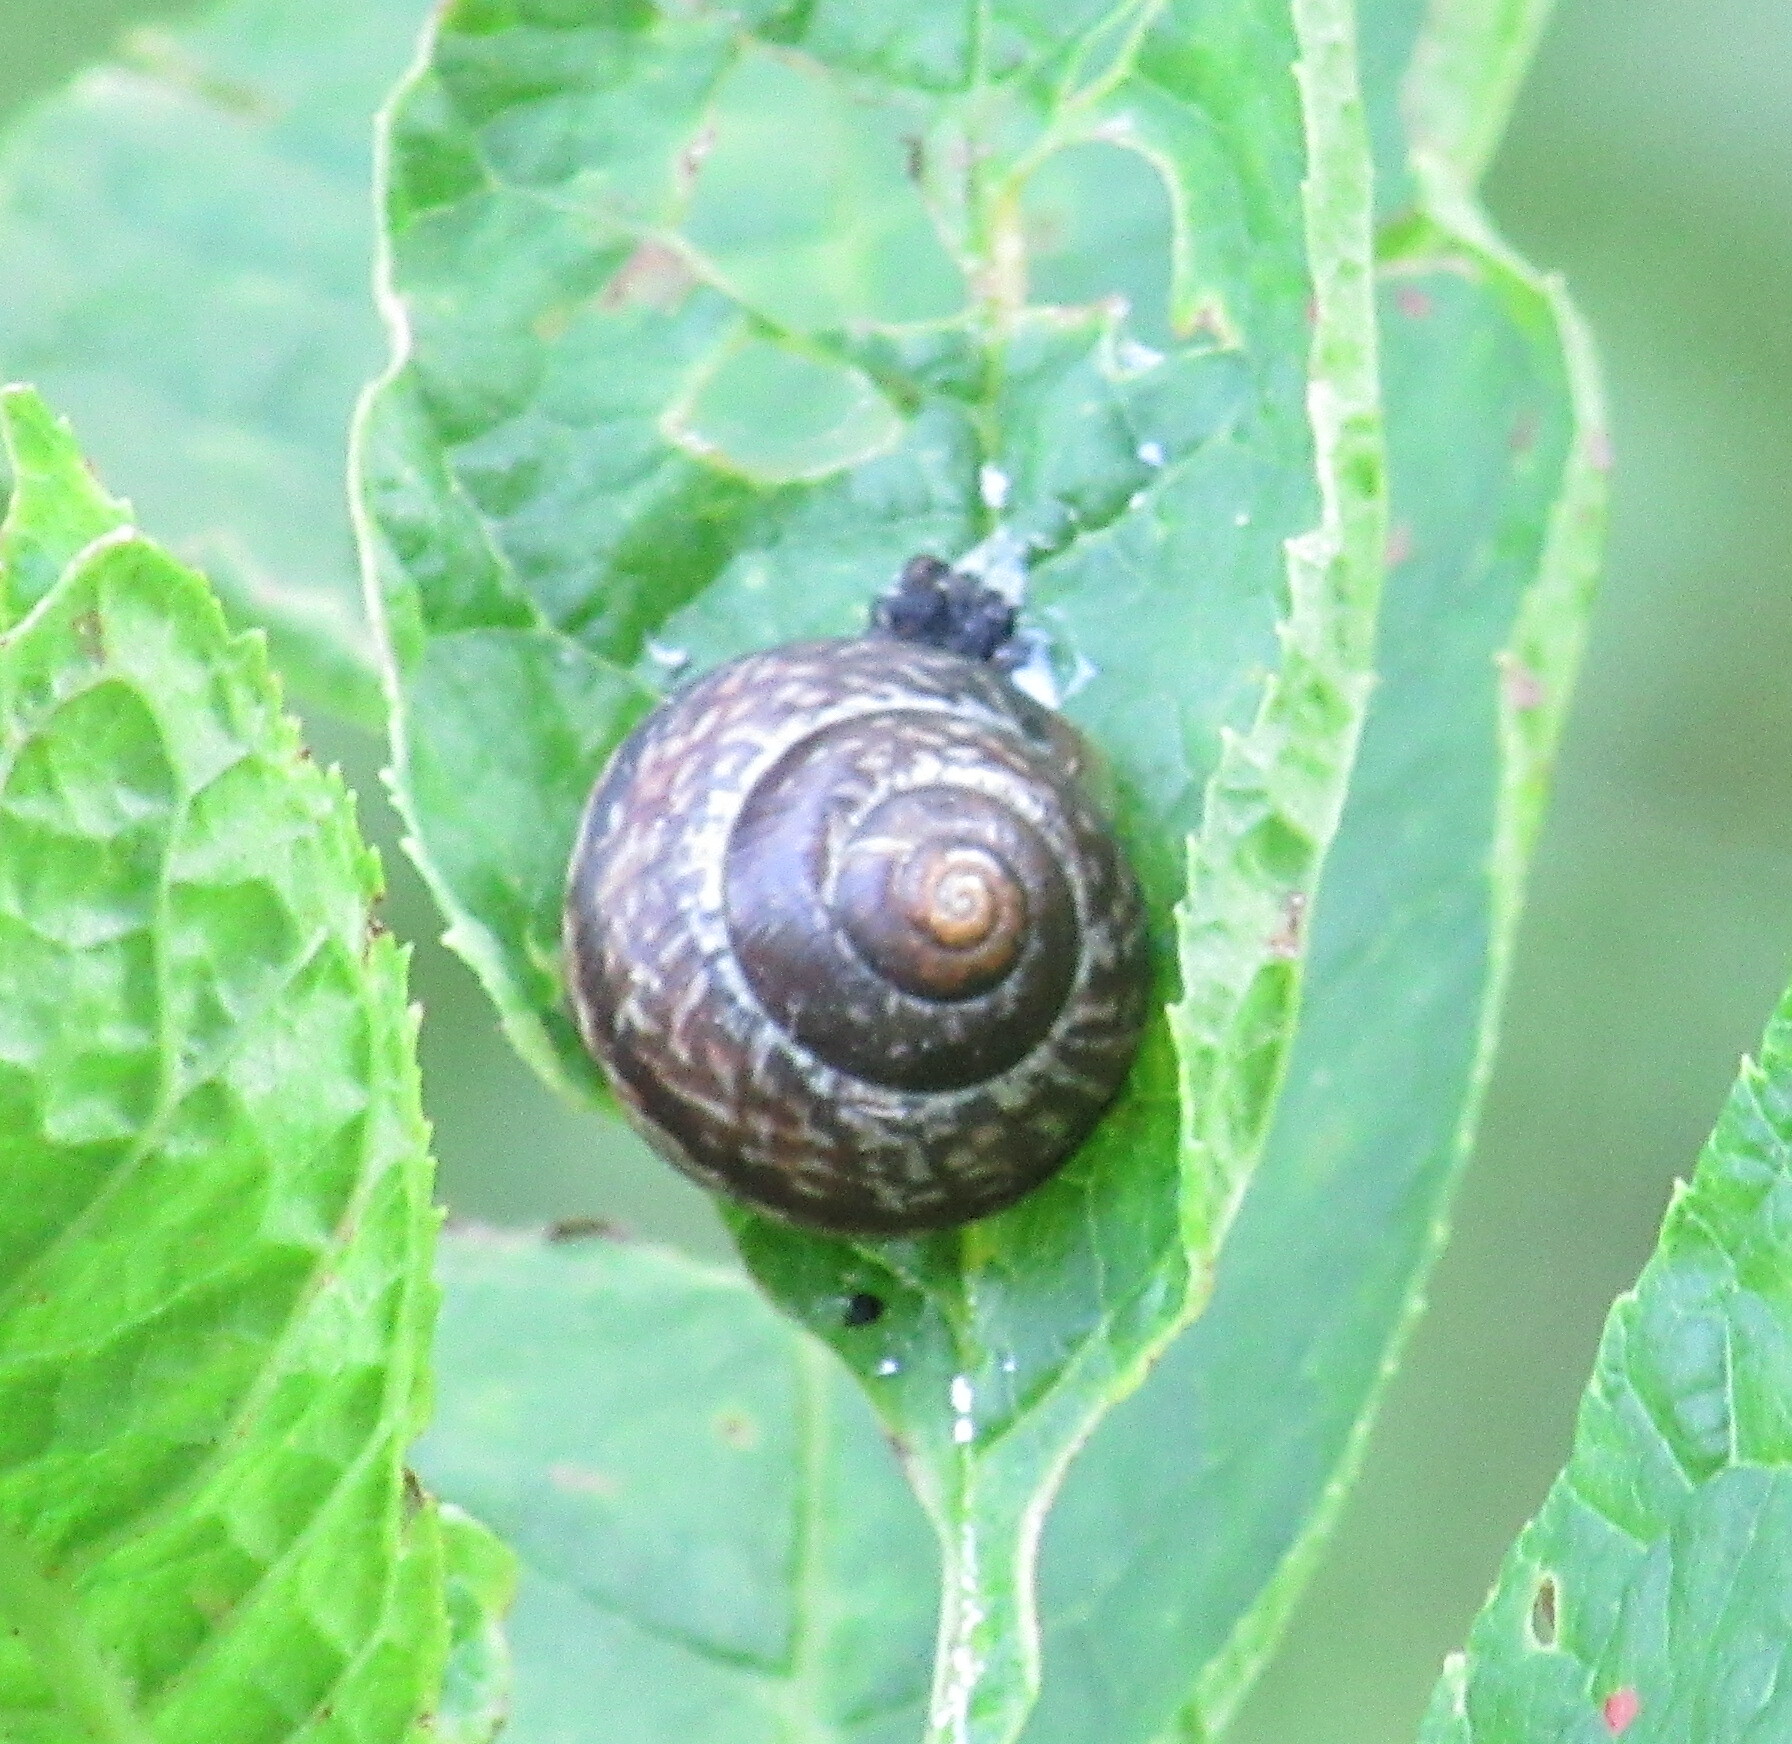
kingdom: Animalia
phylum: Mollusca
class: Gastropoda
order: Stylommatophora
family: Helicidae
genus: Arianta
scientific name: Arianta arbustorum
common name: Copse snail
